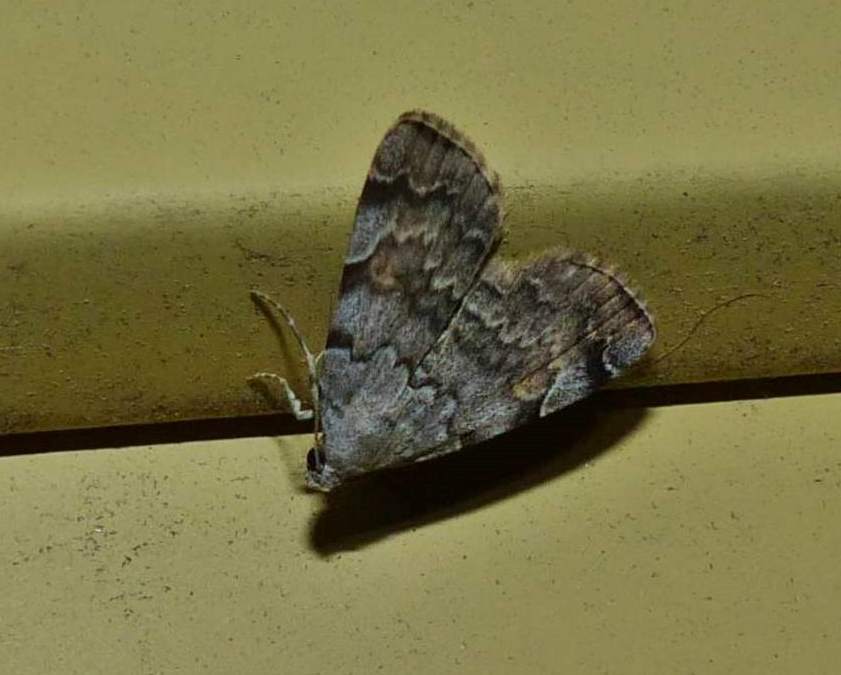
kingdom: Animalia
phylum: Arthropoda
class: Insecta
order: Lepidoptera
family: Erebidae
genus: Idia
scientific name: Idia americalis
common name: American idia moth
